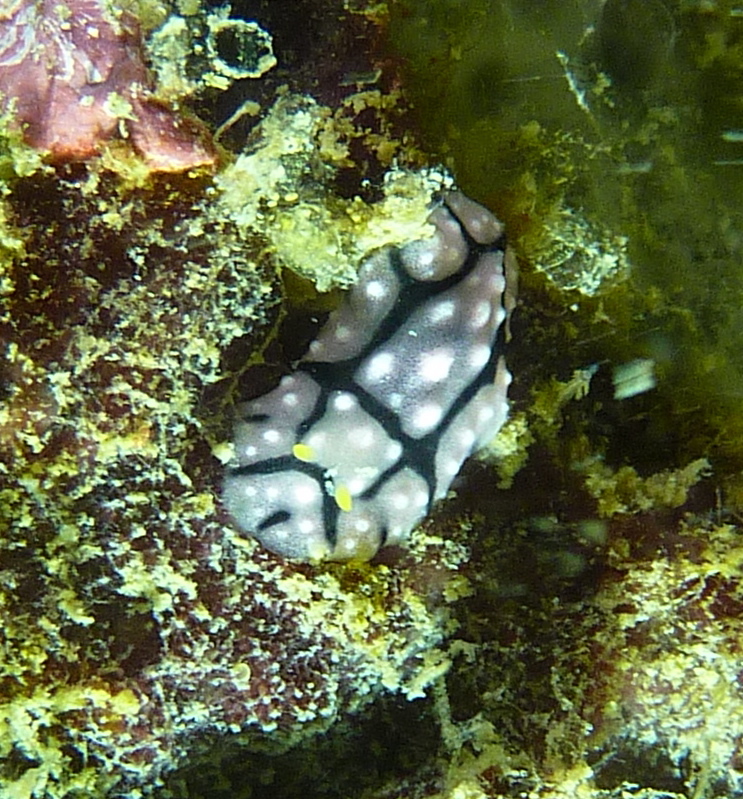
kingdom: Animalia
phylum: Mollusca
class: Gastropoda
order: Nudibranchia
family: Phyllidiidae
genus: Phyllidia
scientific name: Phyllidia elegans
